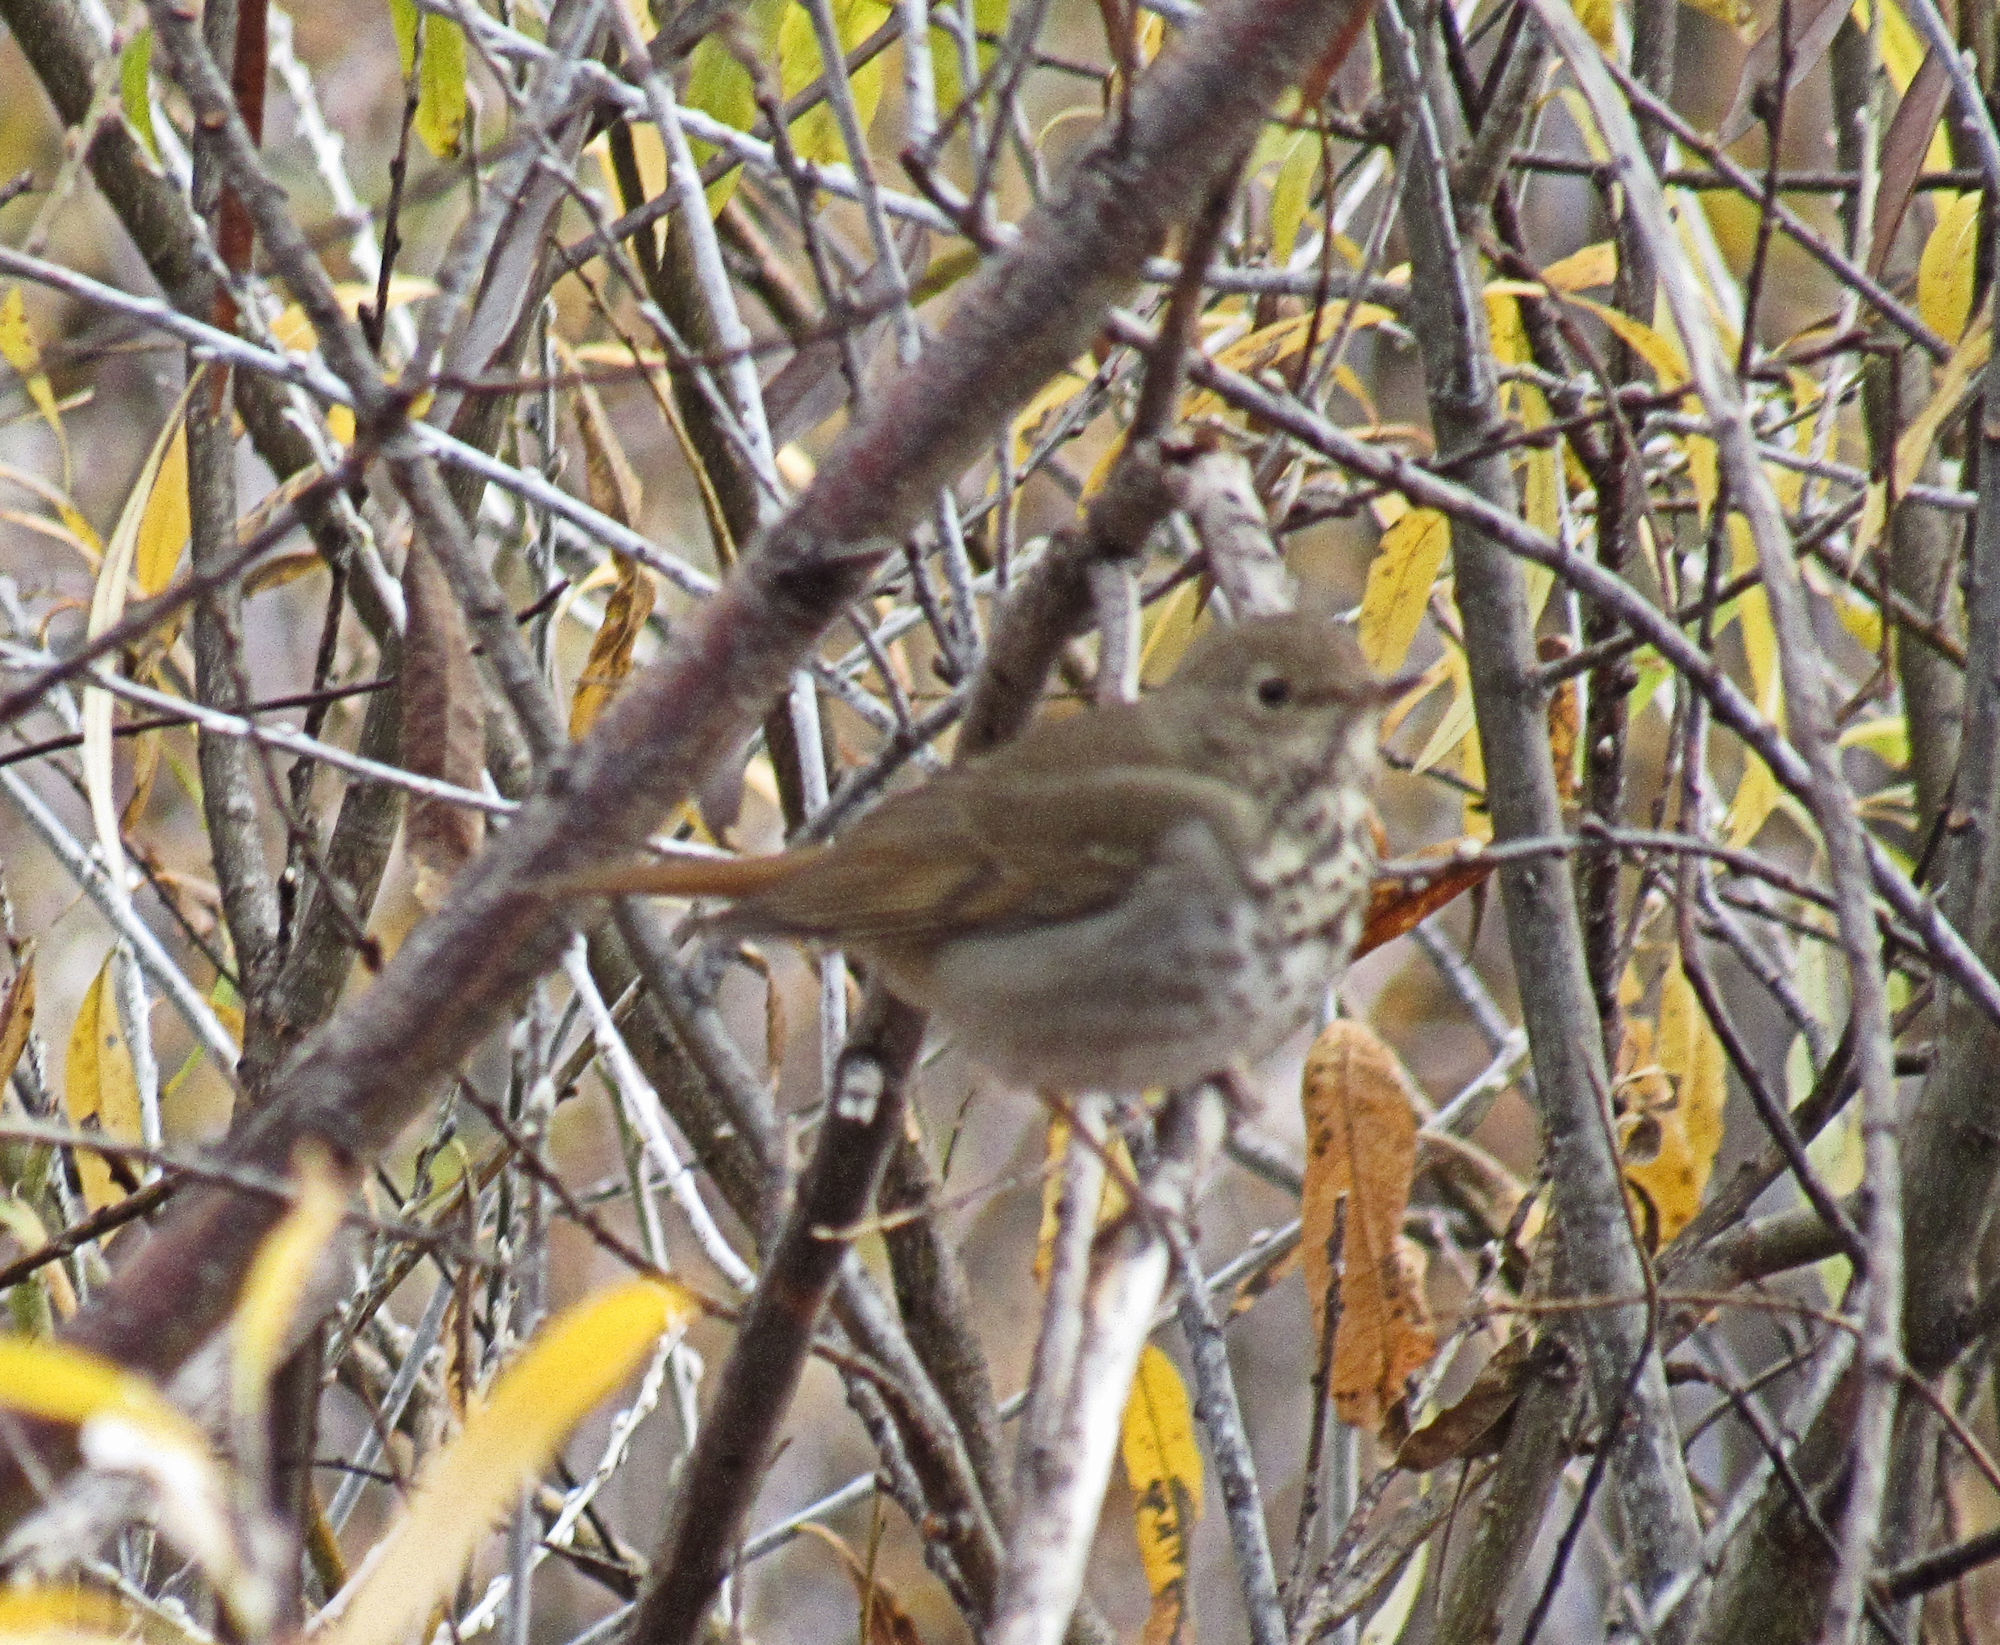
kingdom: Animalia
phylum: Chordata
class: Aves
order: Passeriformes
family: Turdidae
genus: Catharus
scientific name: Catharus guttatus
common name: Hermit thrush
